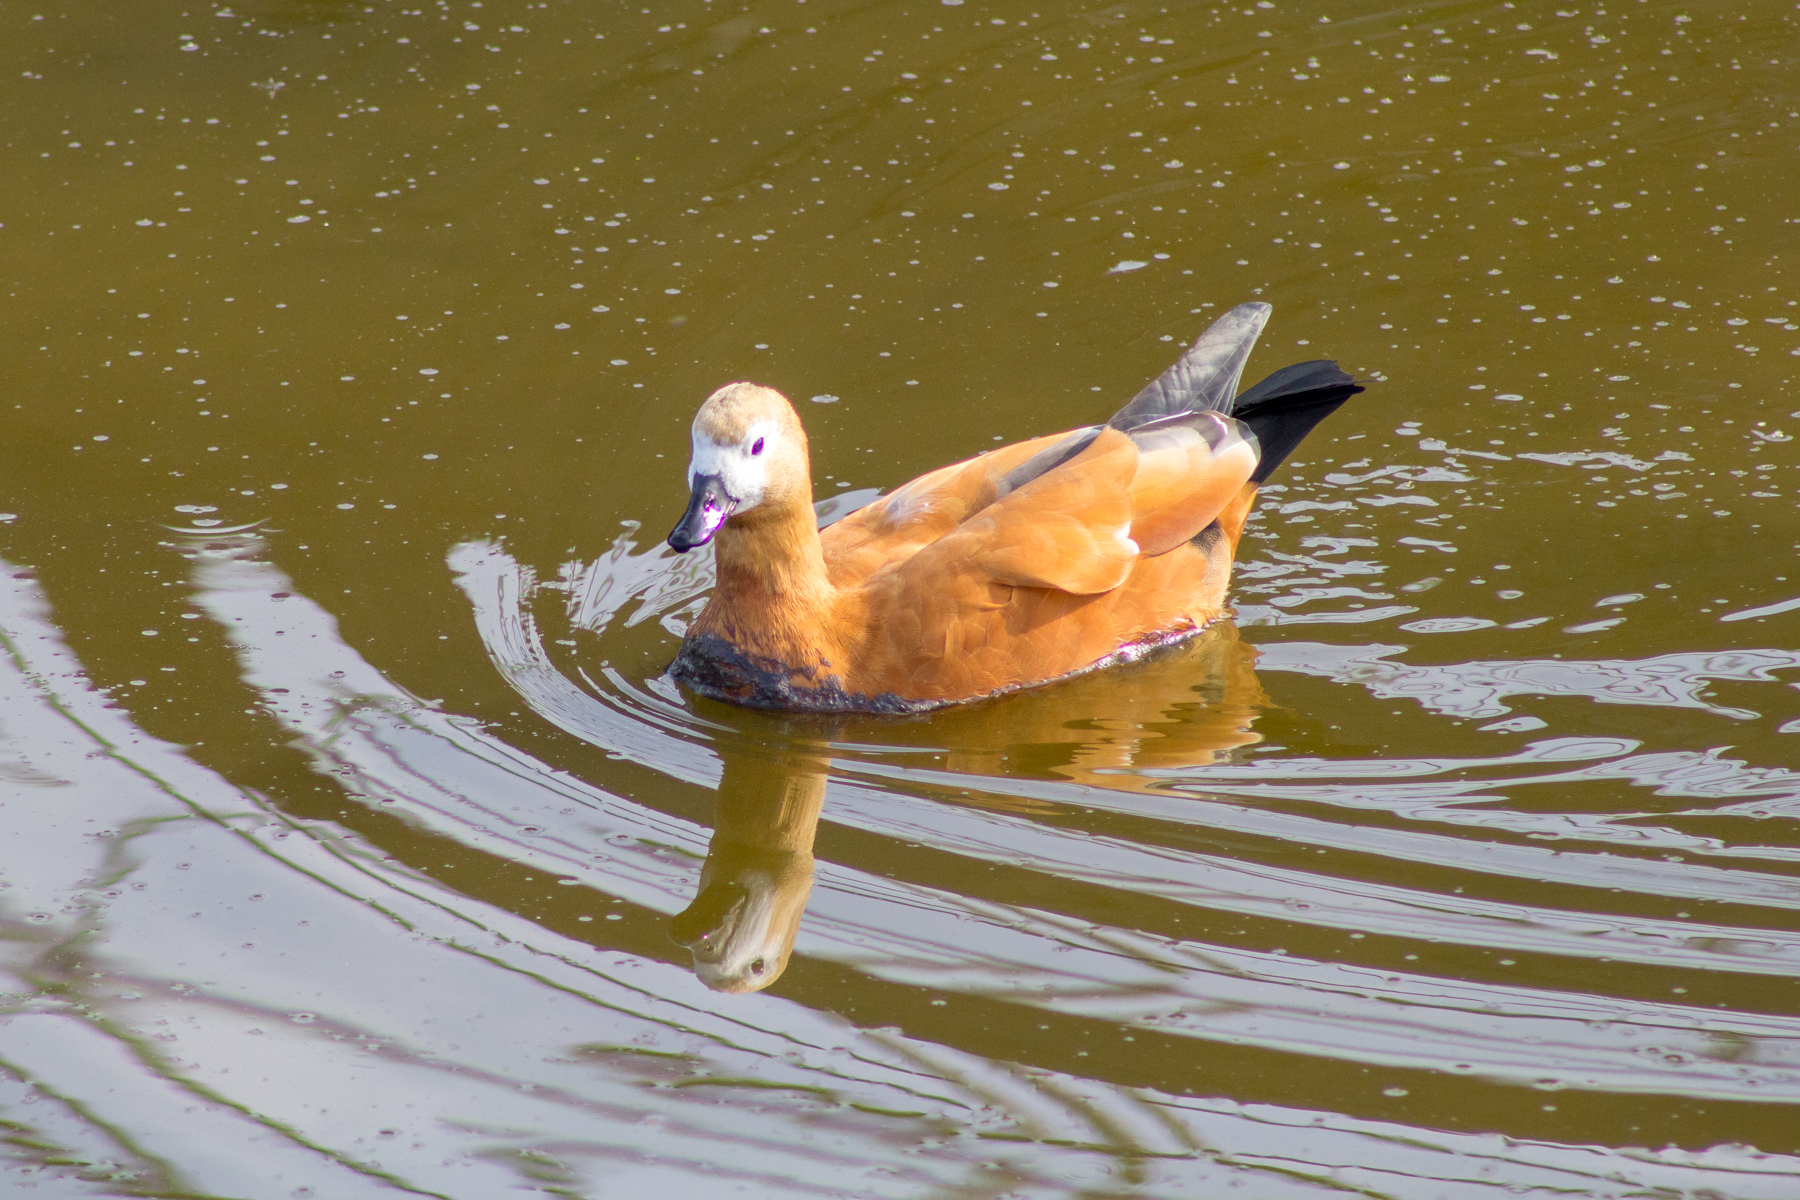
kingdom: Animalia
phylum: Chordata
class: Aves
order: Anseriformes
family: Anatidae
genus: Tadorna
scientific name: Tadorna ferruginea
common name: Ruddy shelduck
